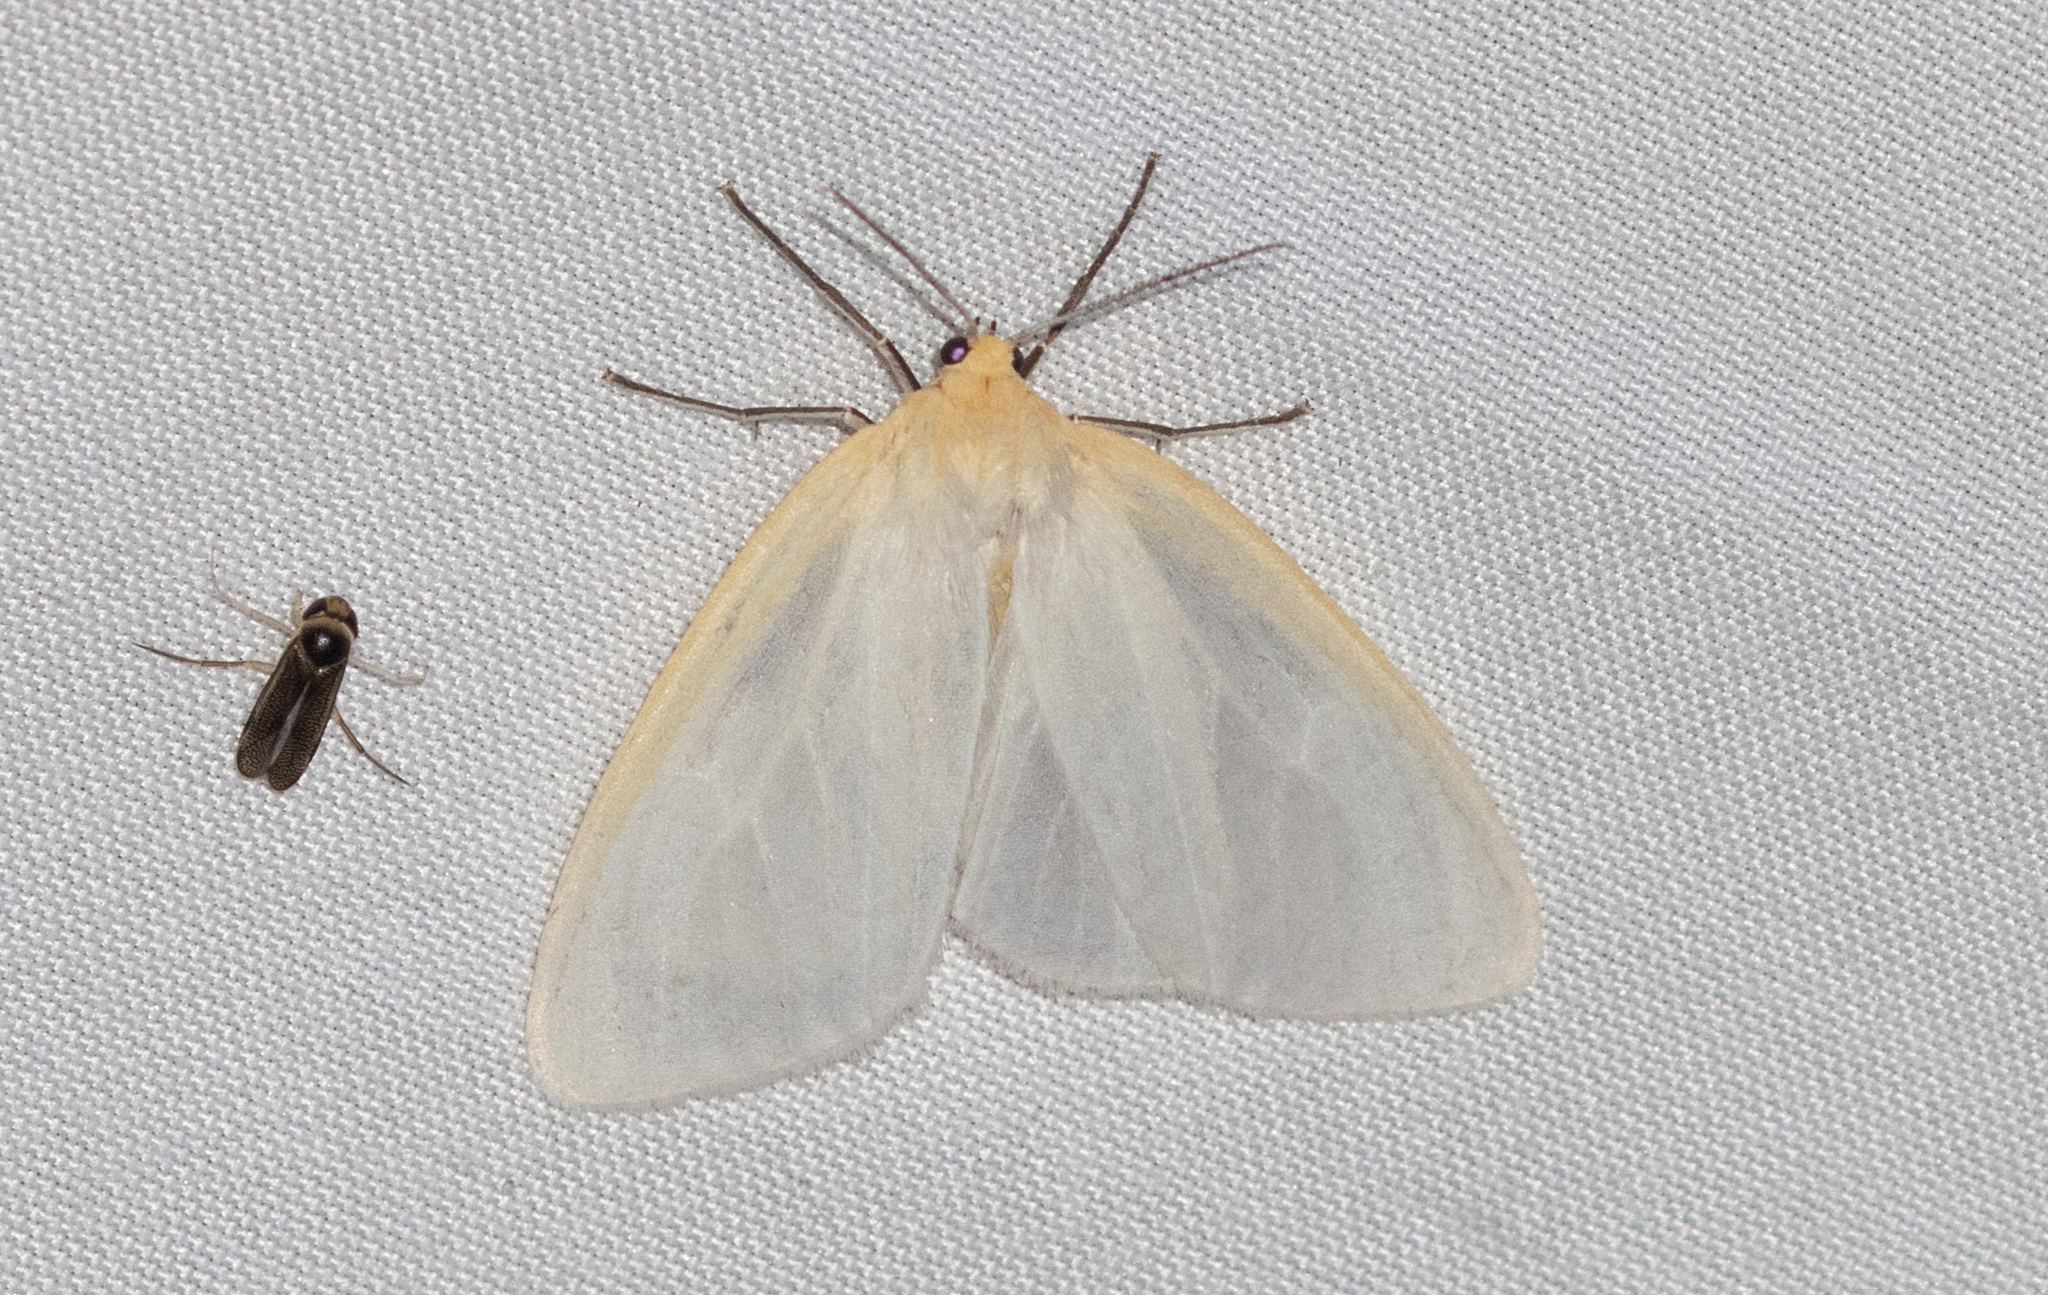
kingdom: Animalia
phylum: Arthropoda
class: Insecta
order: Lepidoptera
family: Erebidae
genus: Cycnia
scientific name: Cycnia tenera
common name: Delicate cycnia moth
